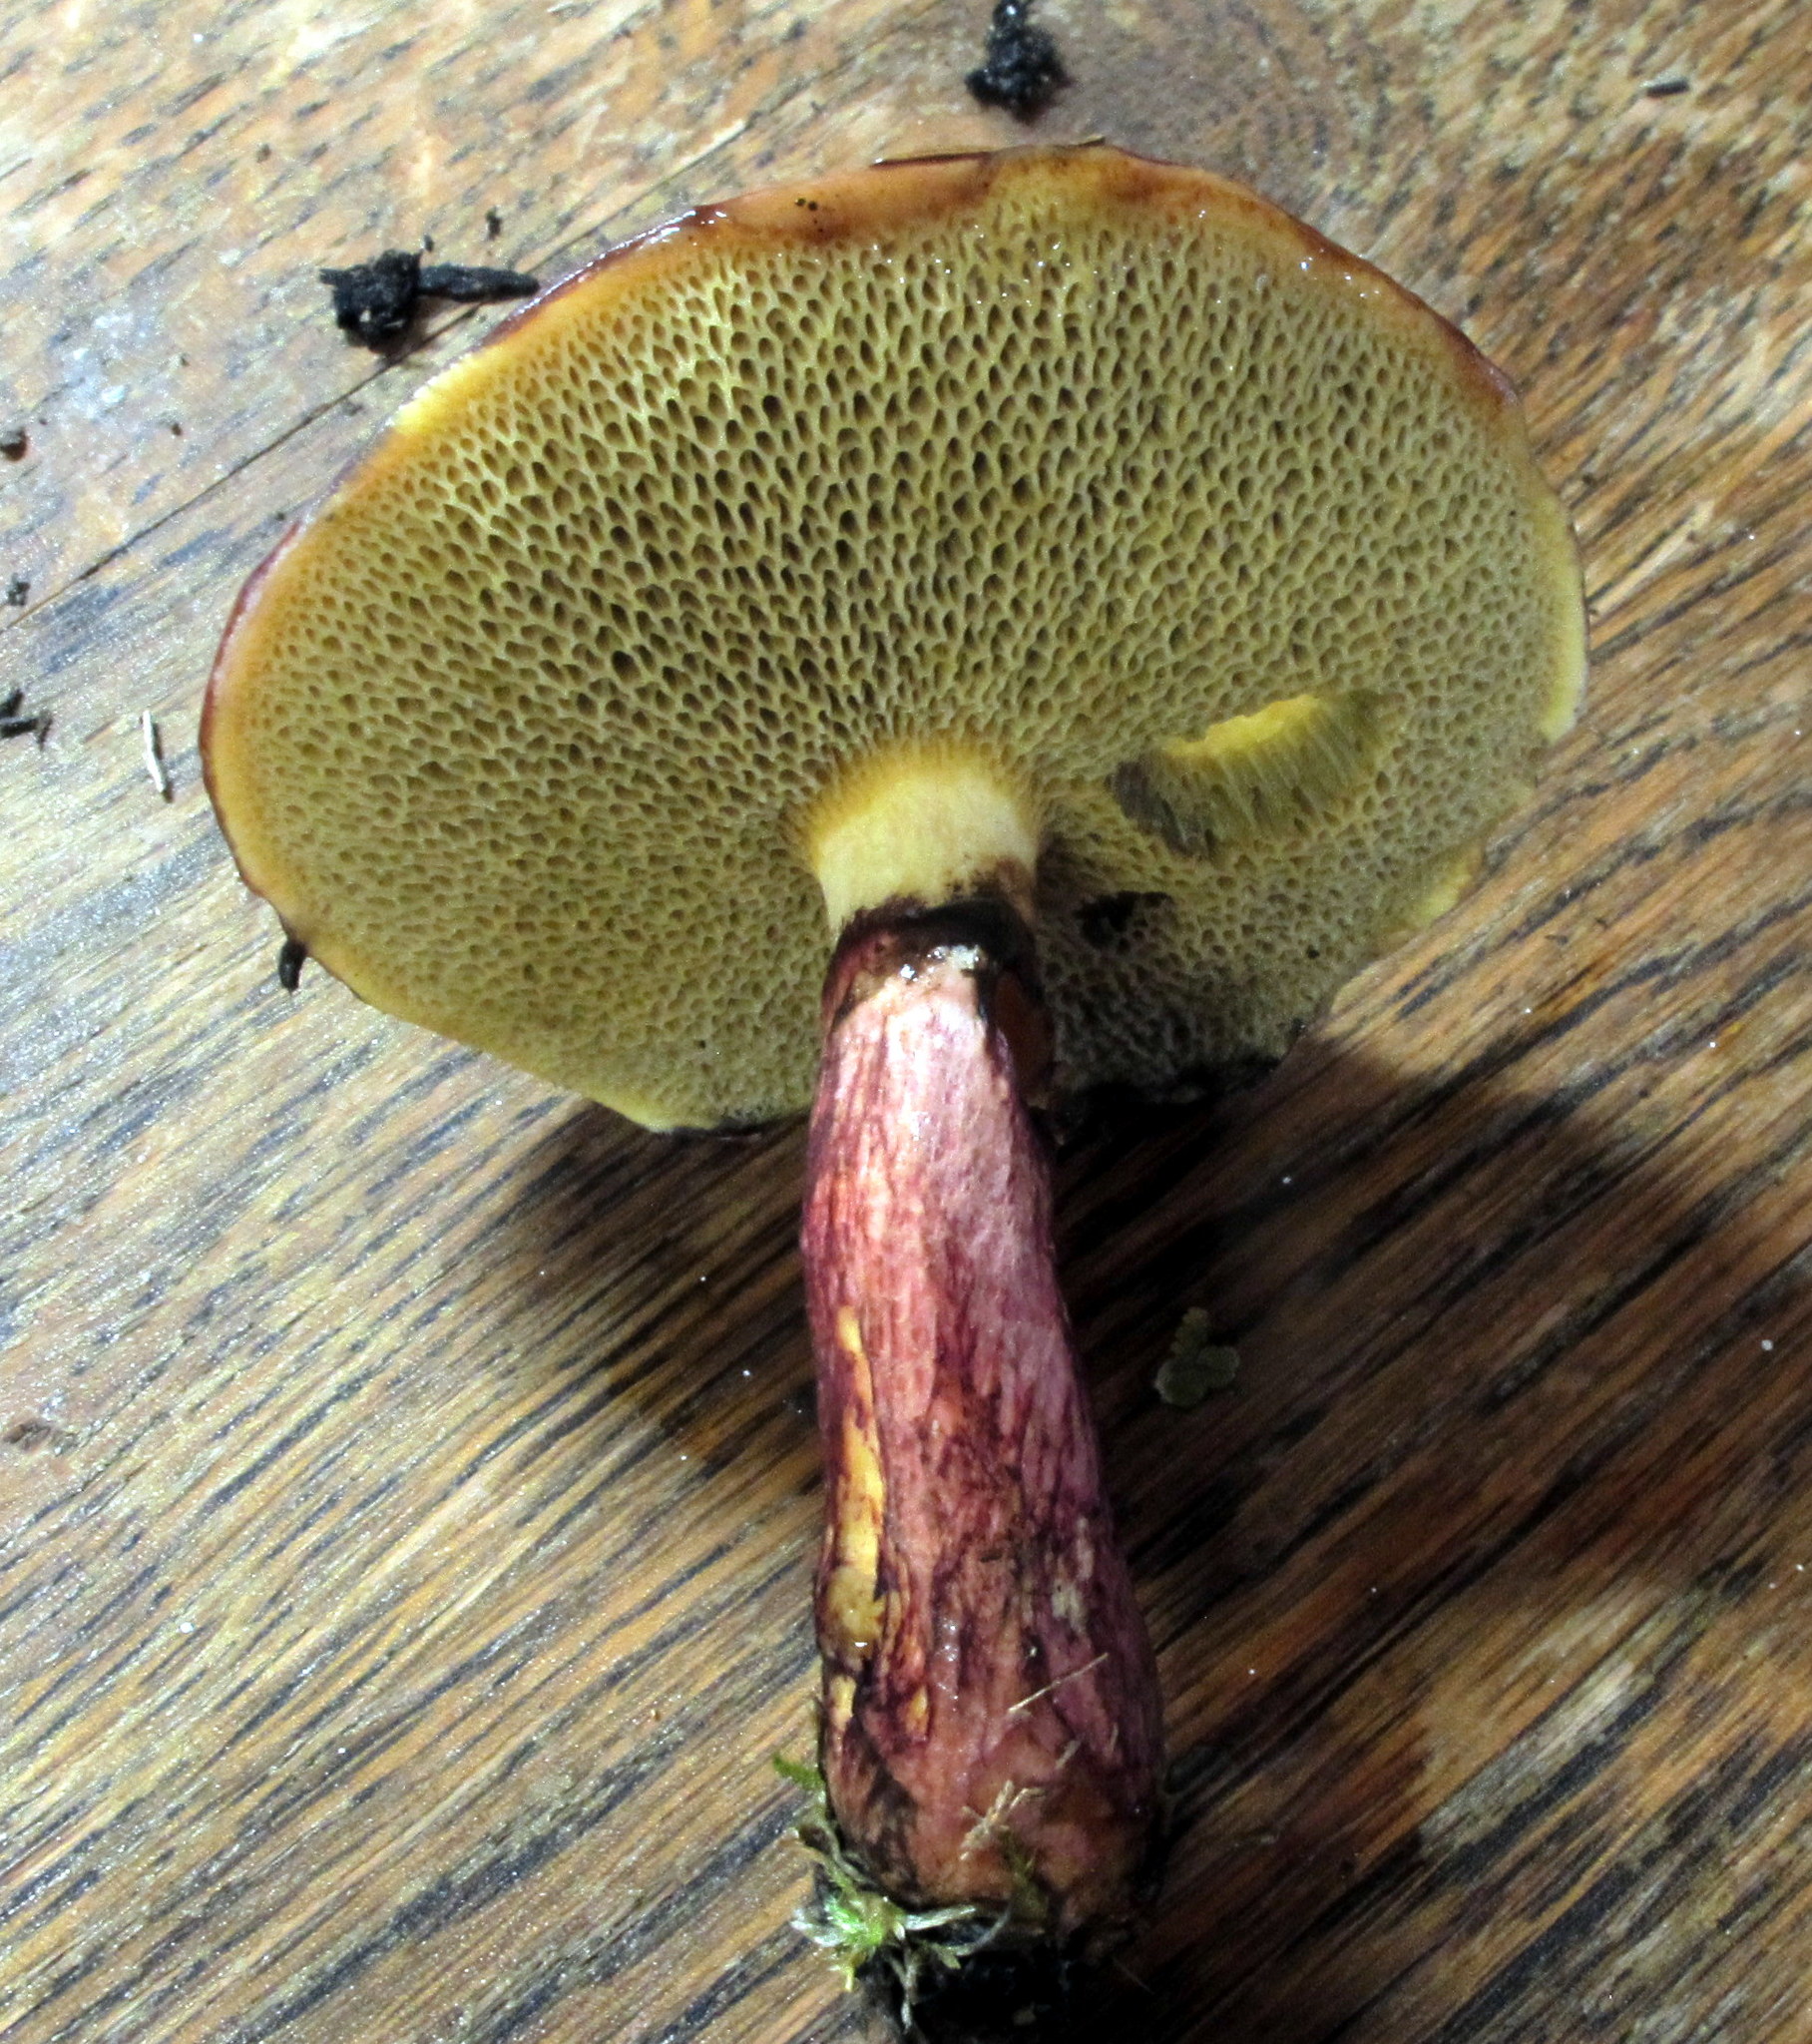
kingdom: Fungi
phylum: Basidiomycota
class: Agaricomycetes
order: Boletales
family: Suillaceae
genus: Boletinus
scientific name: Boletinus spectabilis
